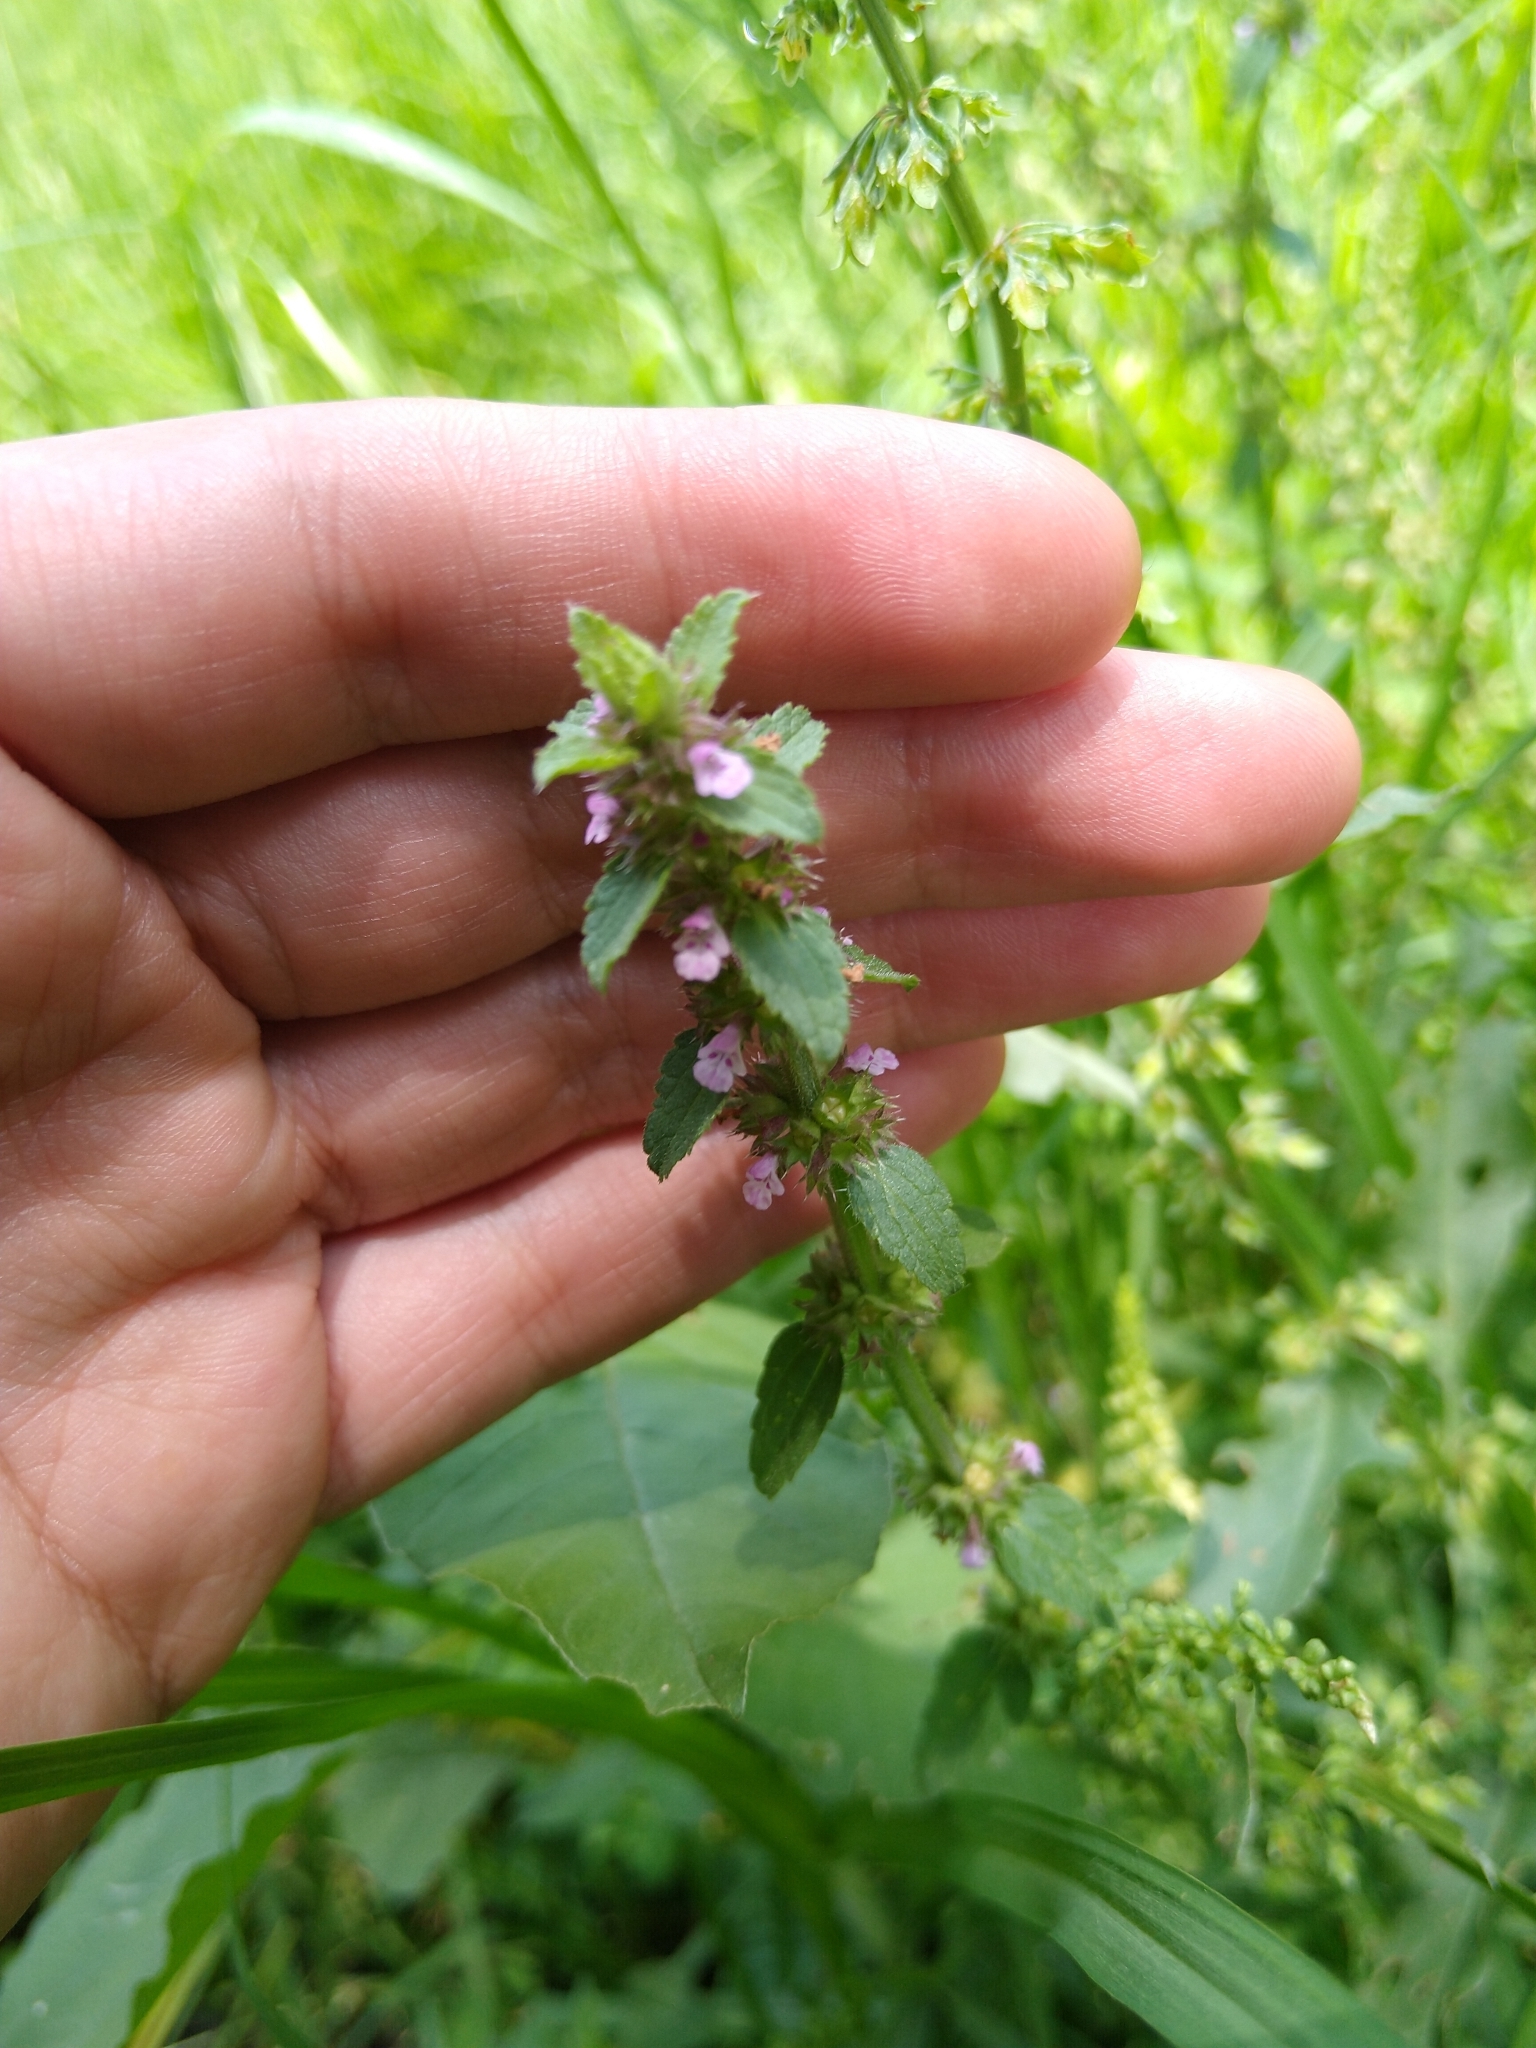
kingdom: Plantae
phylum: Tracheophyta
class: Magnoliopsida
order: Lamiales
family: Lamiaceae
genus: Stachys
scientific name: Stachys agraria
